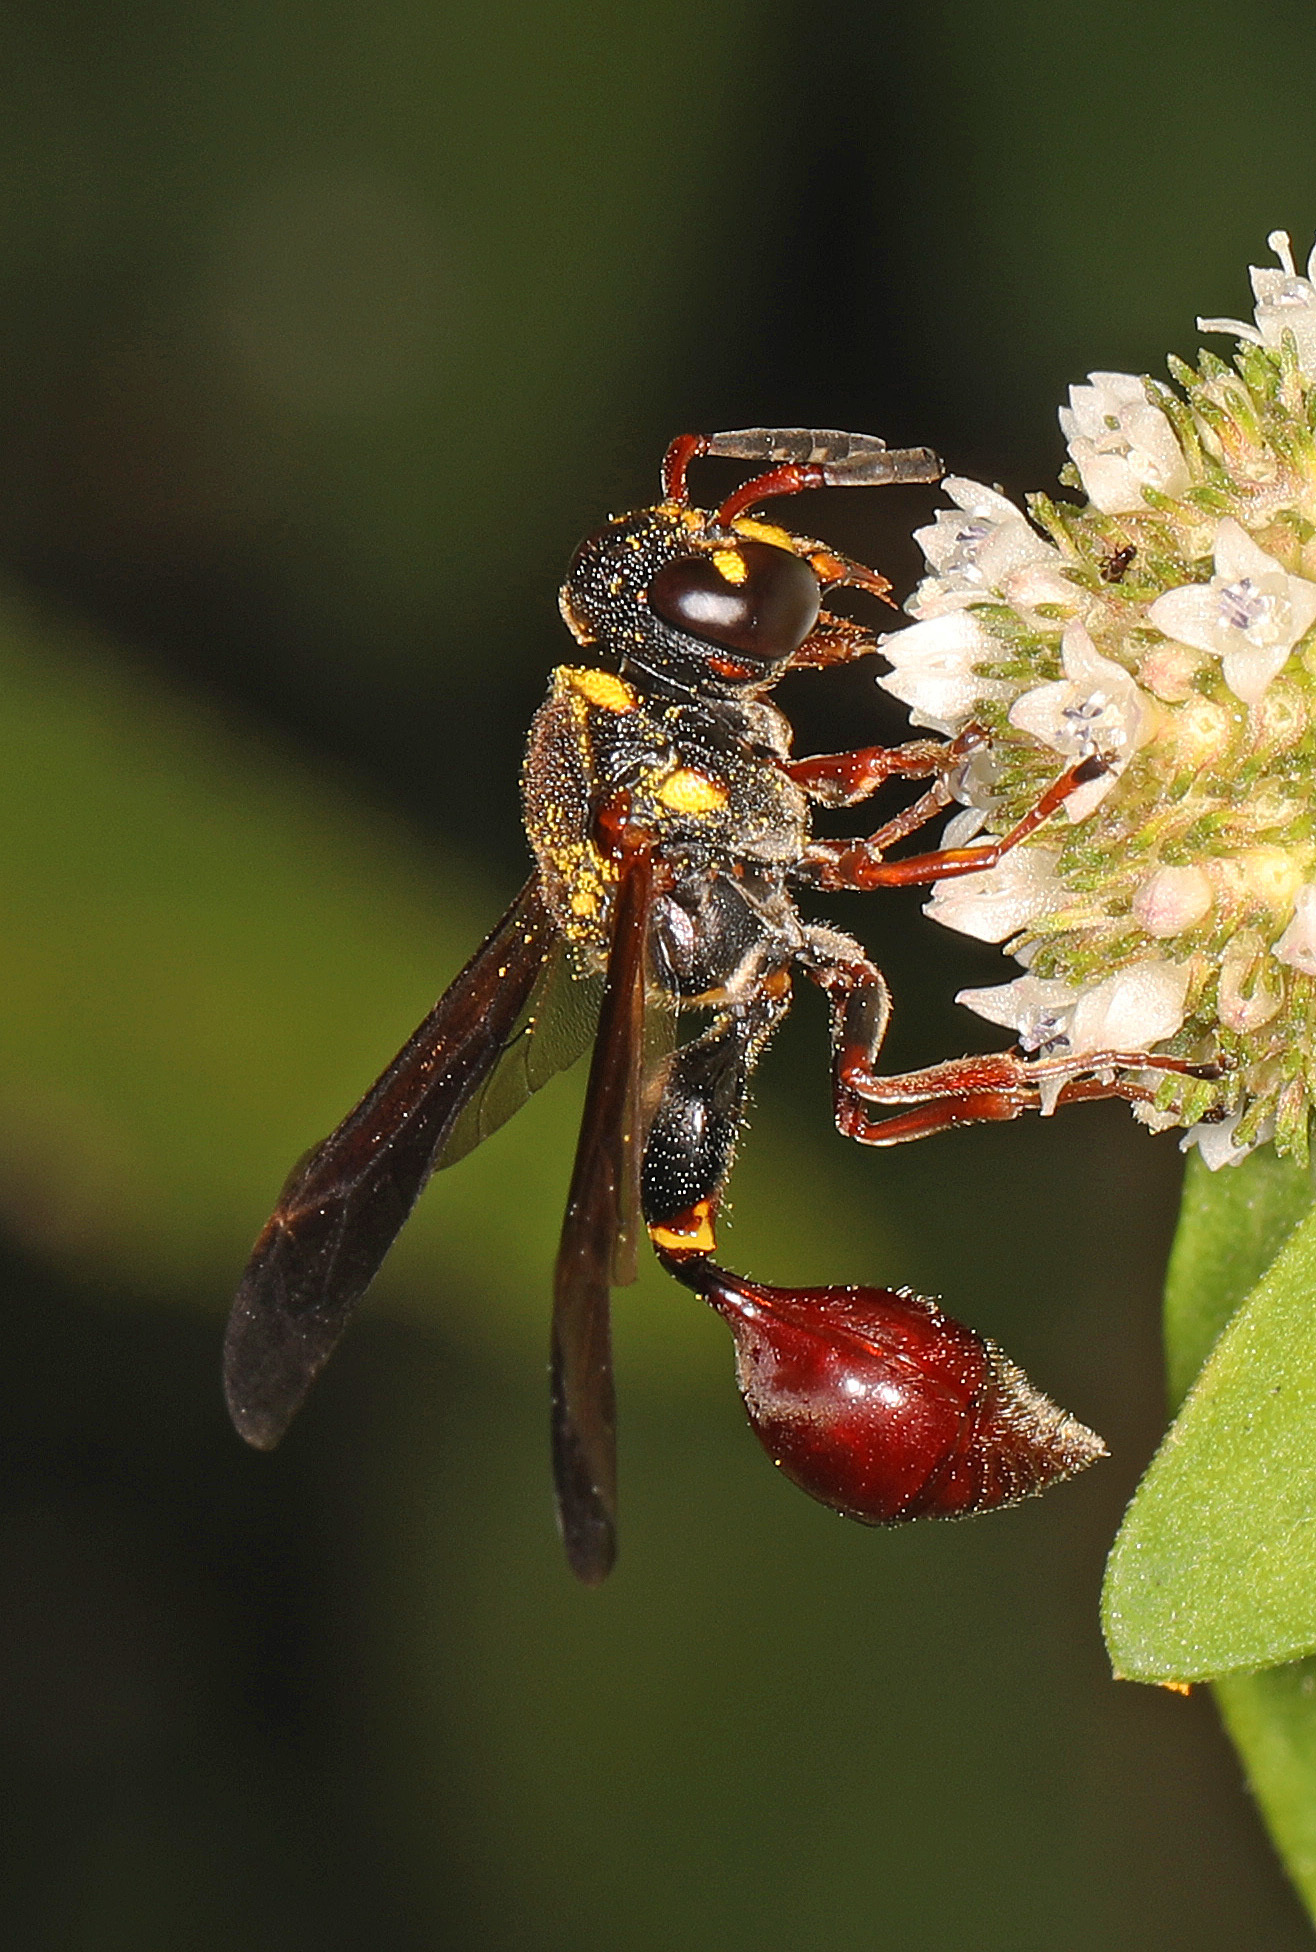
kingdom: Animalia
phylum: Arthropoda
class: Insecta
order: Hymenoptera
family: Eumenidae
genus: Zethus
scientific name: Zethus slossonae
